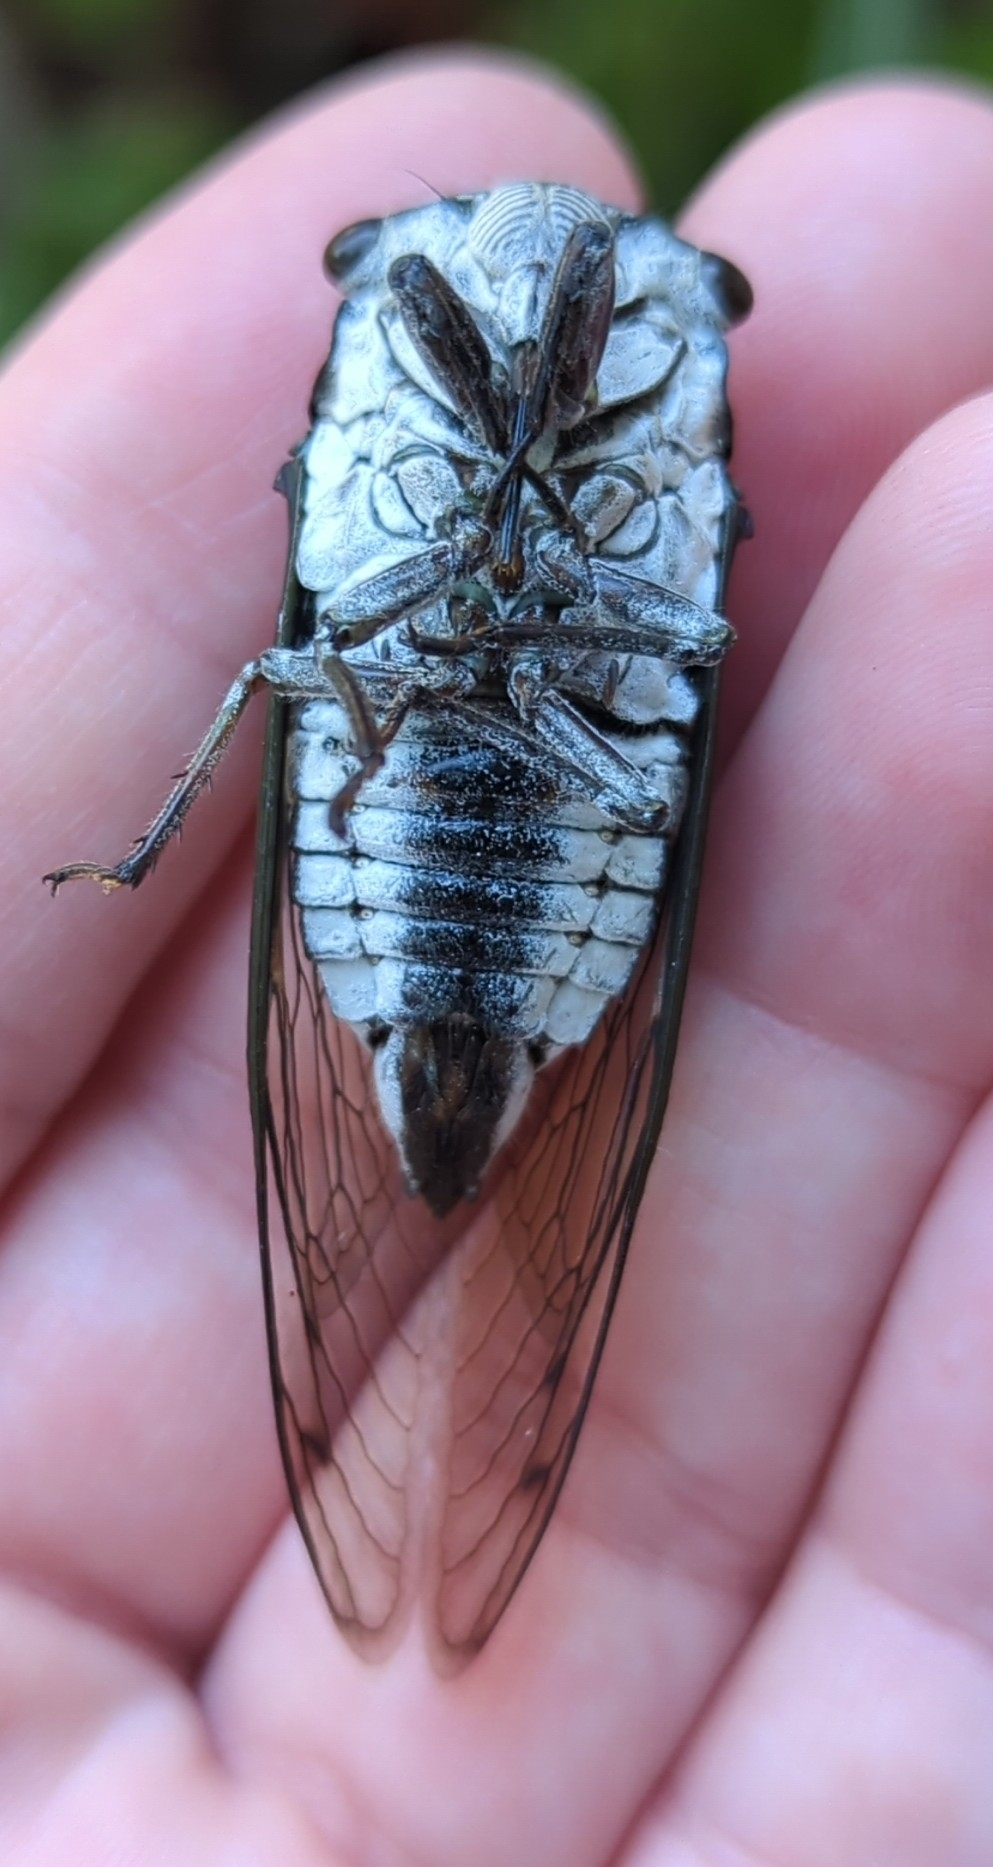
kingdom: Animalia
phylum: Arthropoda
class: Insecta
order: Hemiptera
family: Cicadidae
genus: Neotibicen
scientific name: Neotibicen lyricen
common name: Lyric cicada
